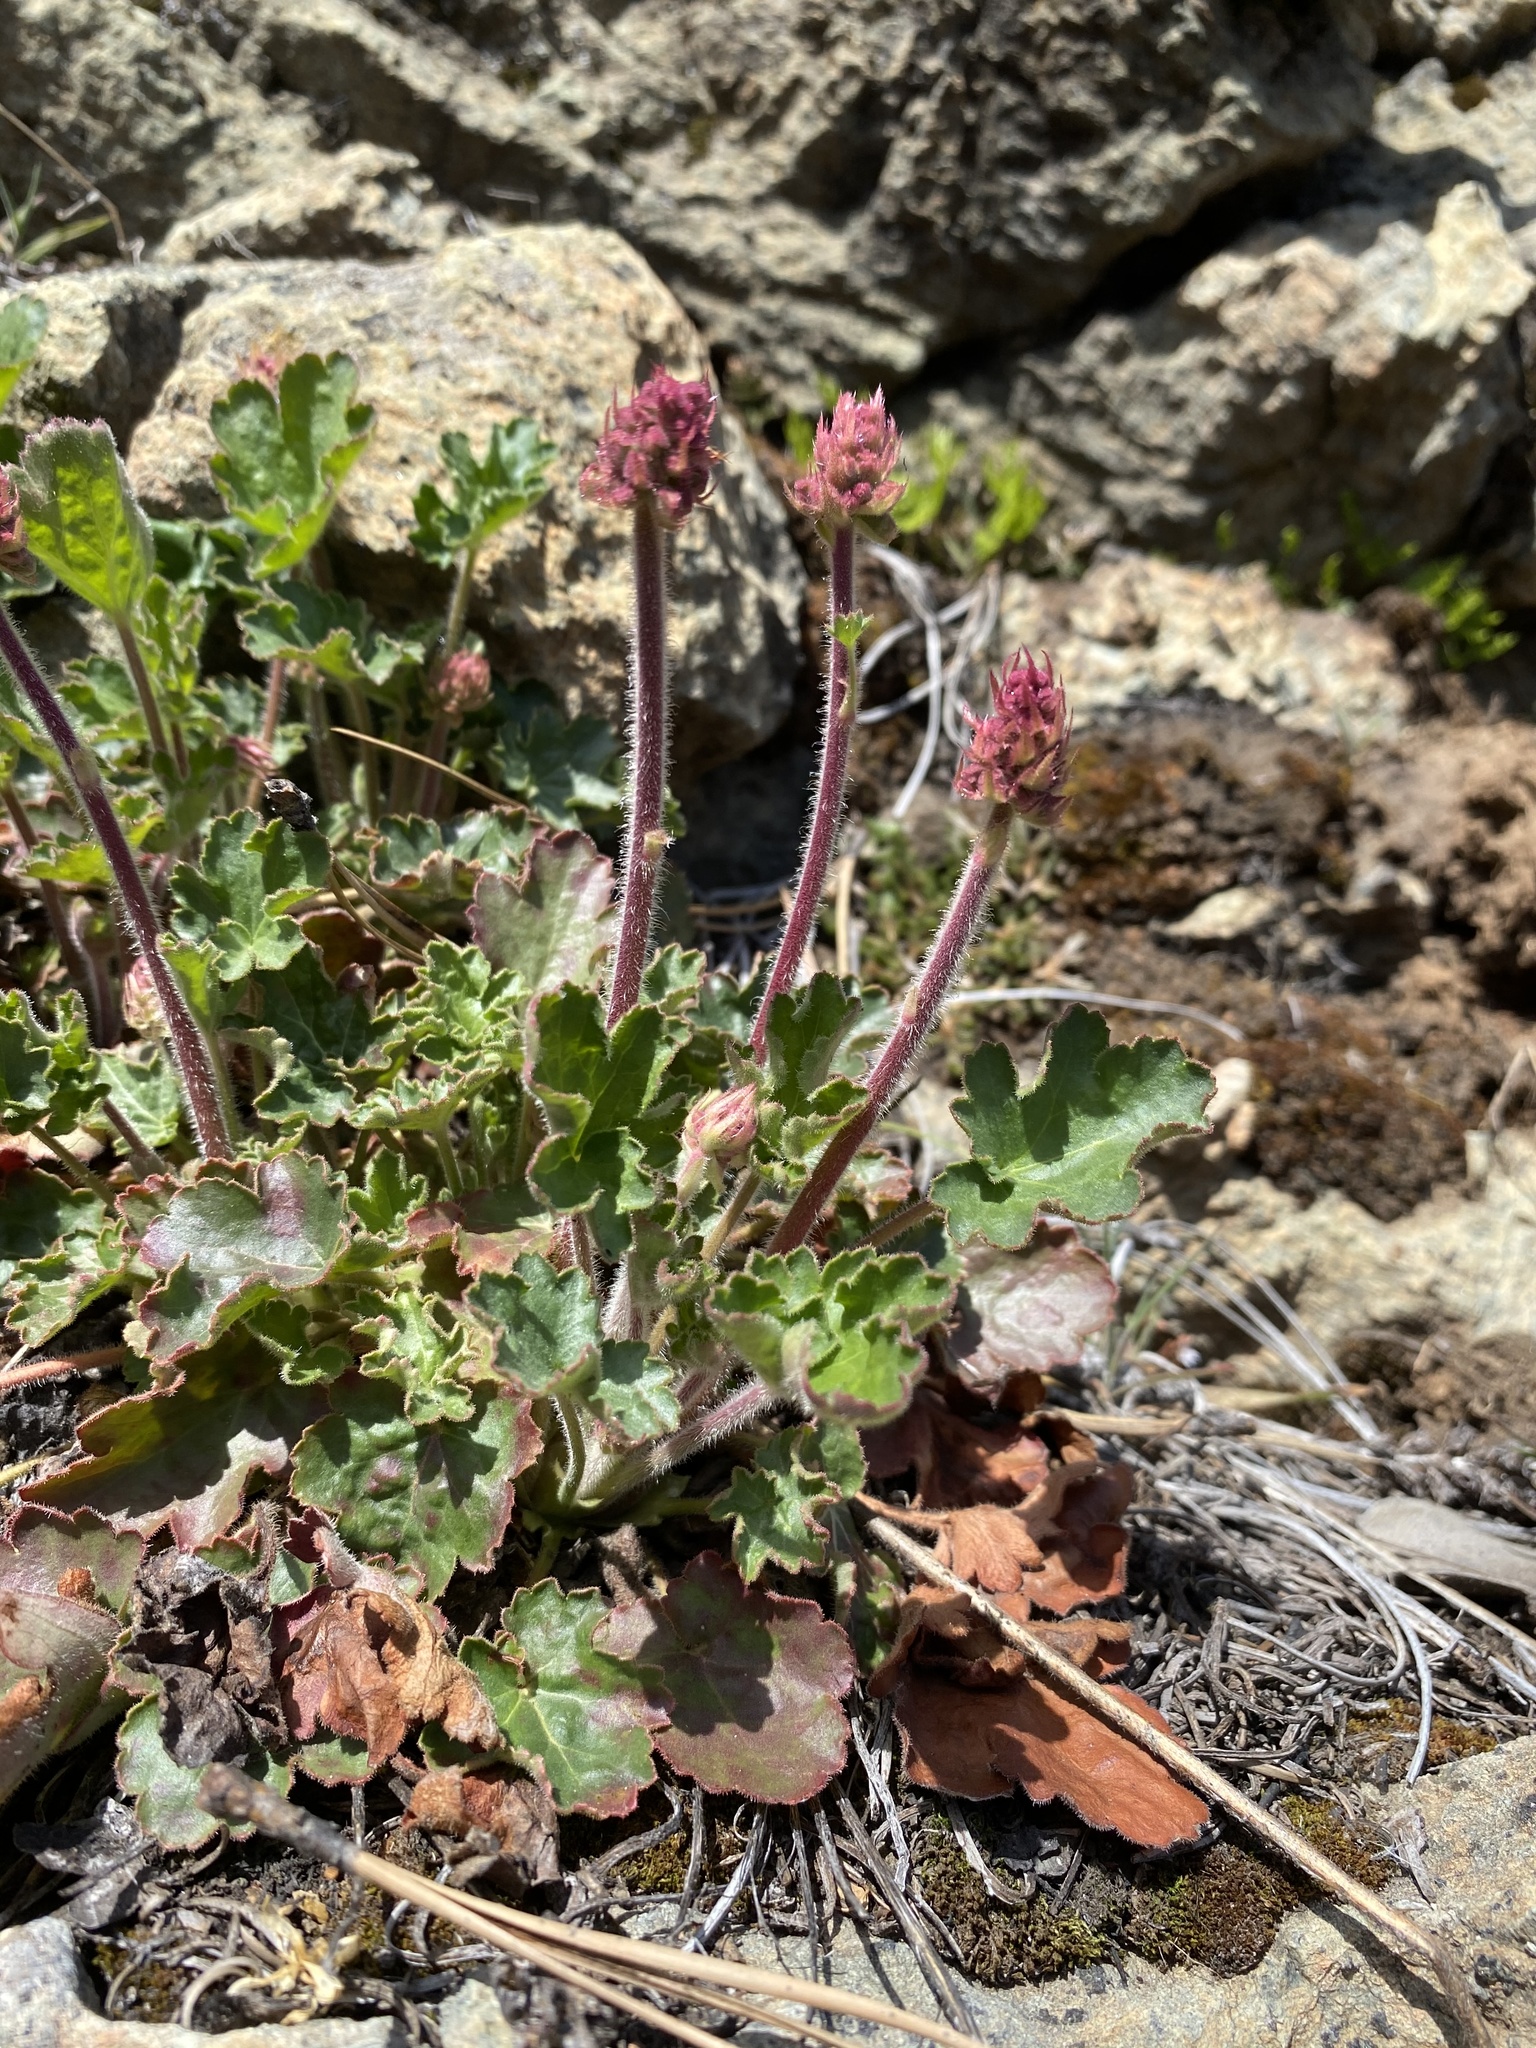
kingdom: Plantae
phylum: Tracheophyta
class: Magnoliopsida
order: Saxifragales
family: Saxifragaceae
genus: Heuchera
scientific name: Heuchera cylindrica
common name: Mat alumroot
